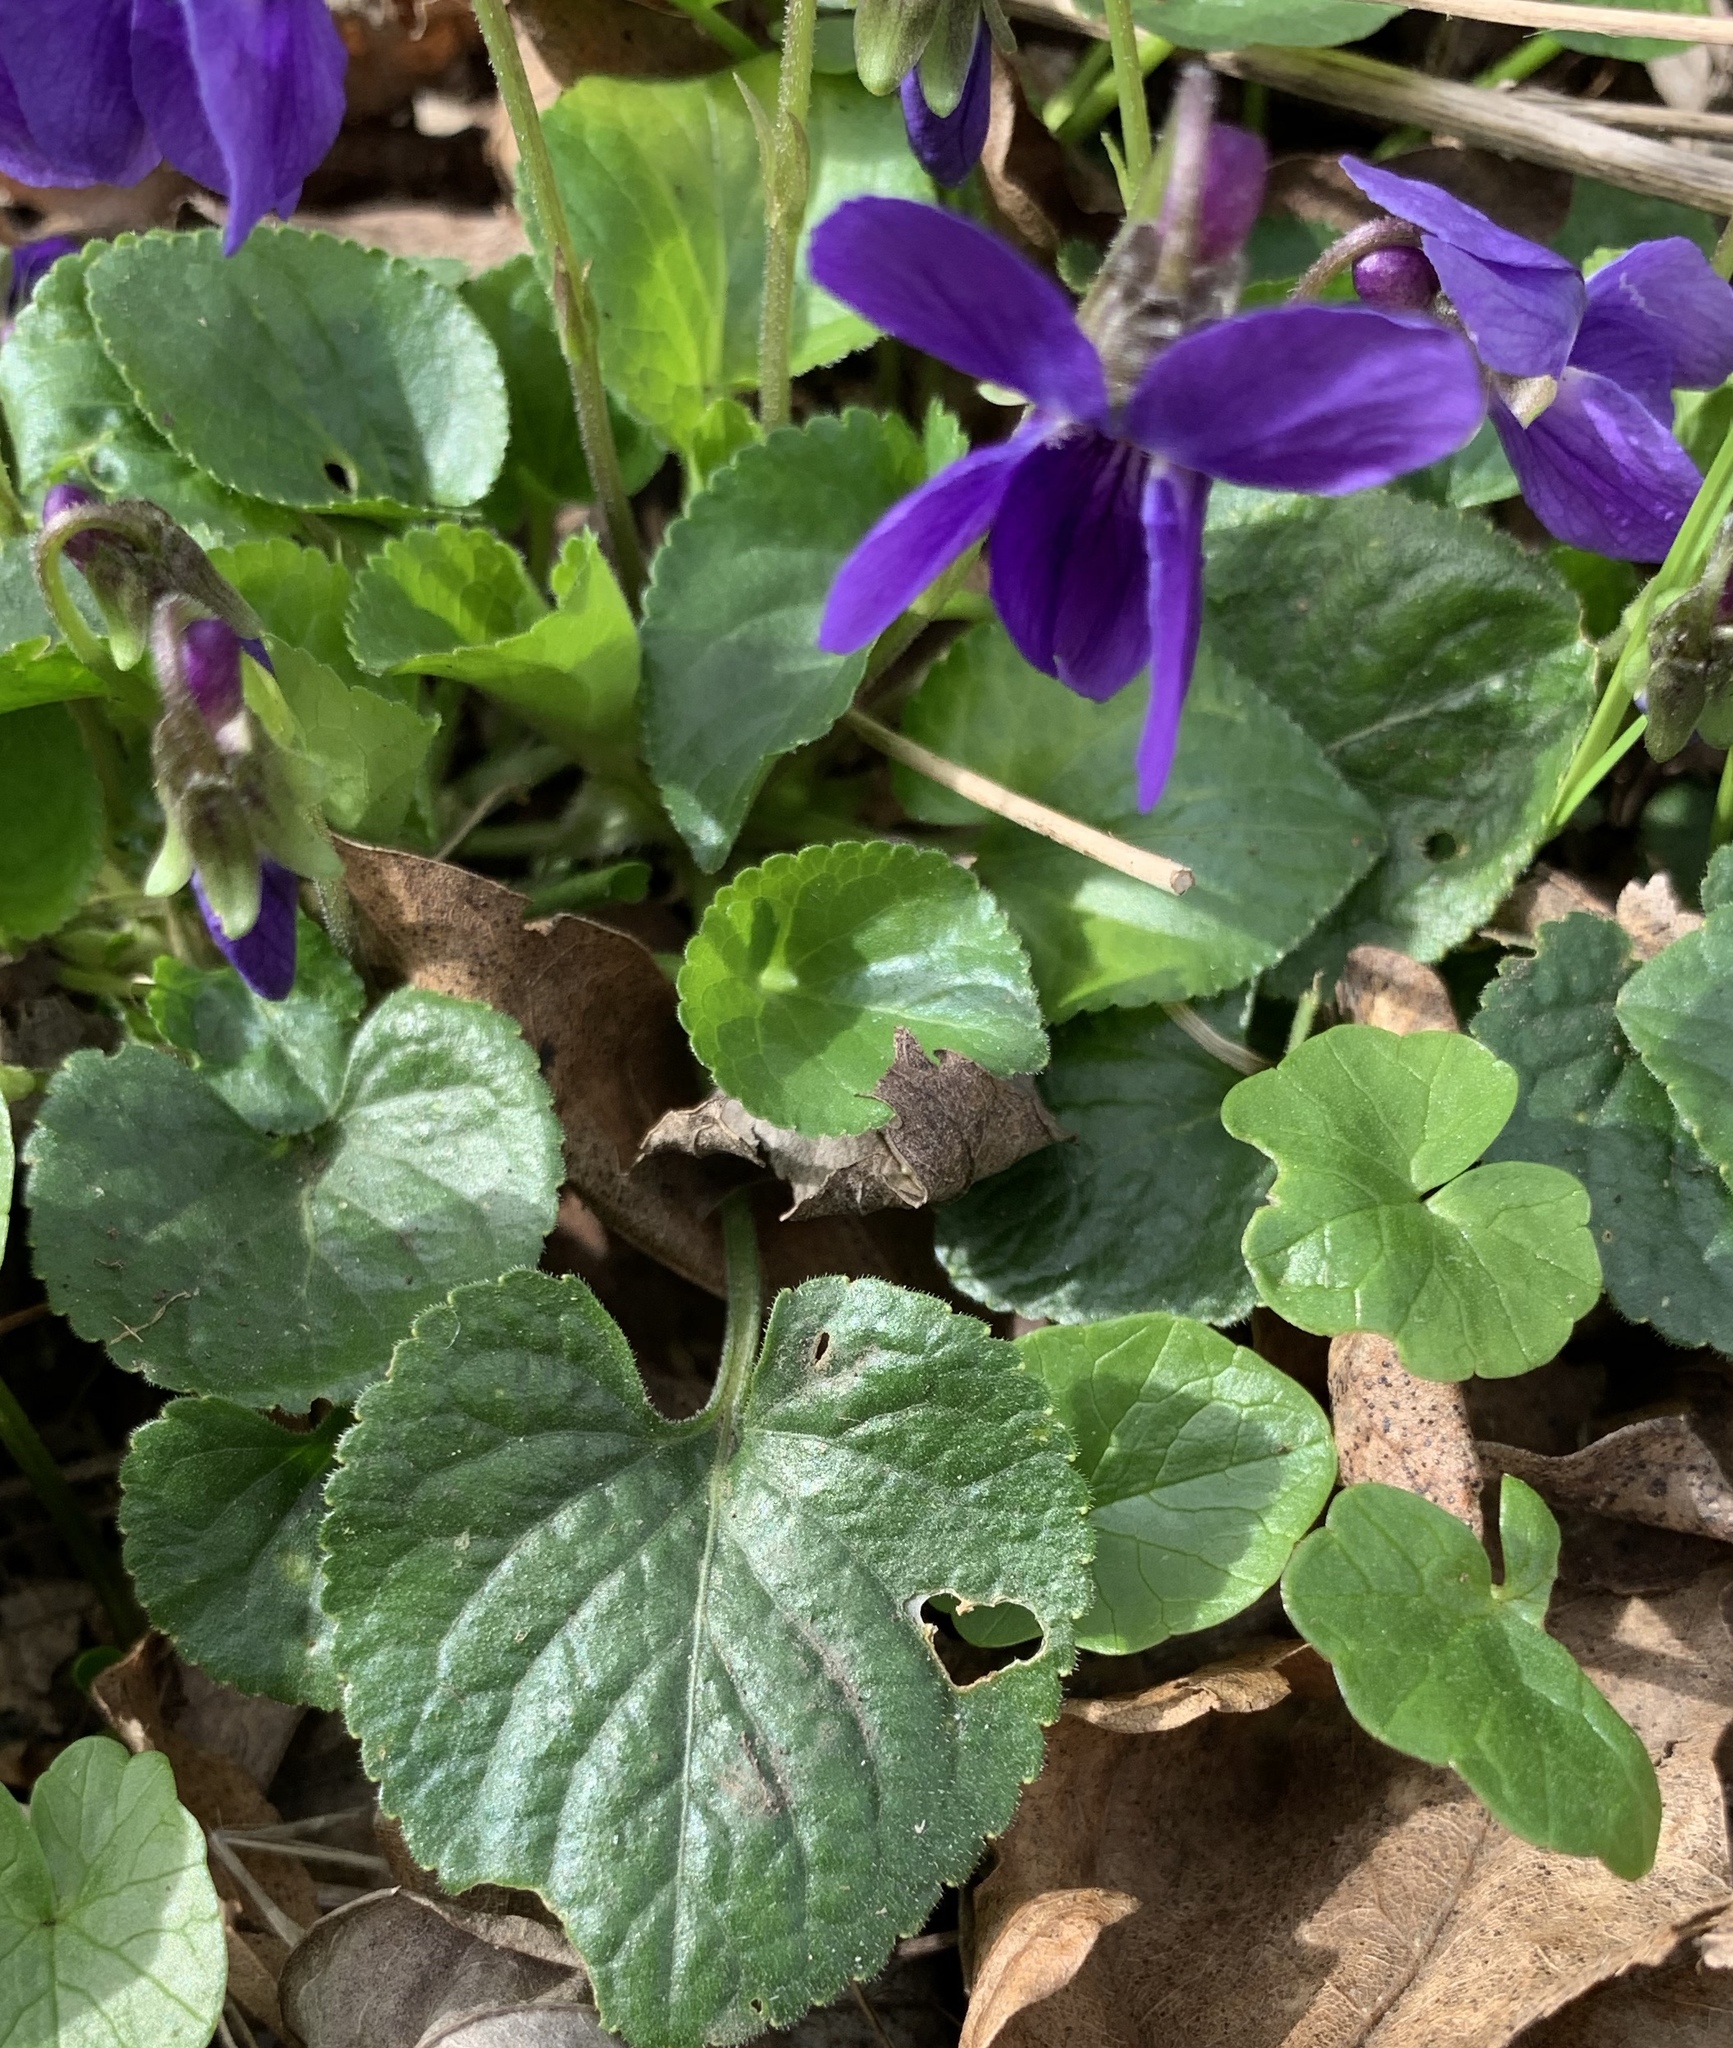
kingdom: Plantae
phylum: Tracheophyta
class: Magnoliopsida
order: Malpighiales
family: Violaceae
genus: Viola
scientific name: Viola odorata
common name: Sweet violet
